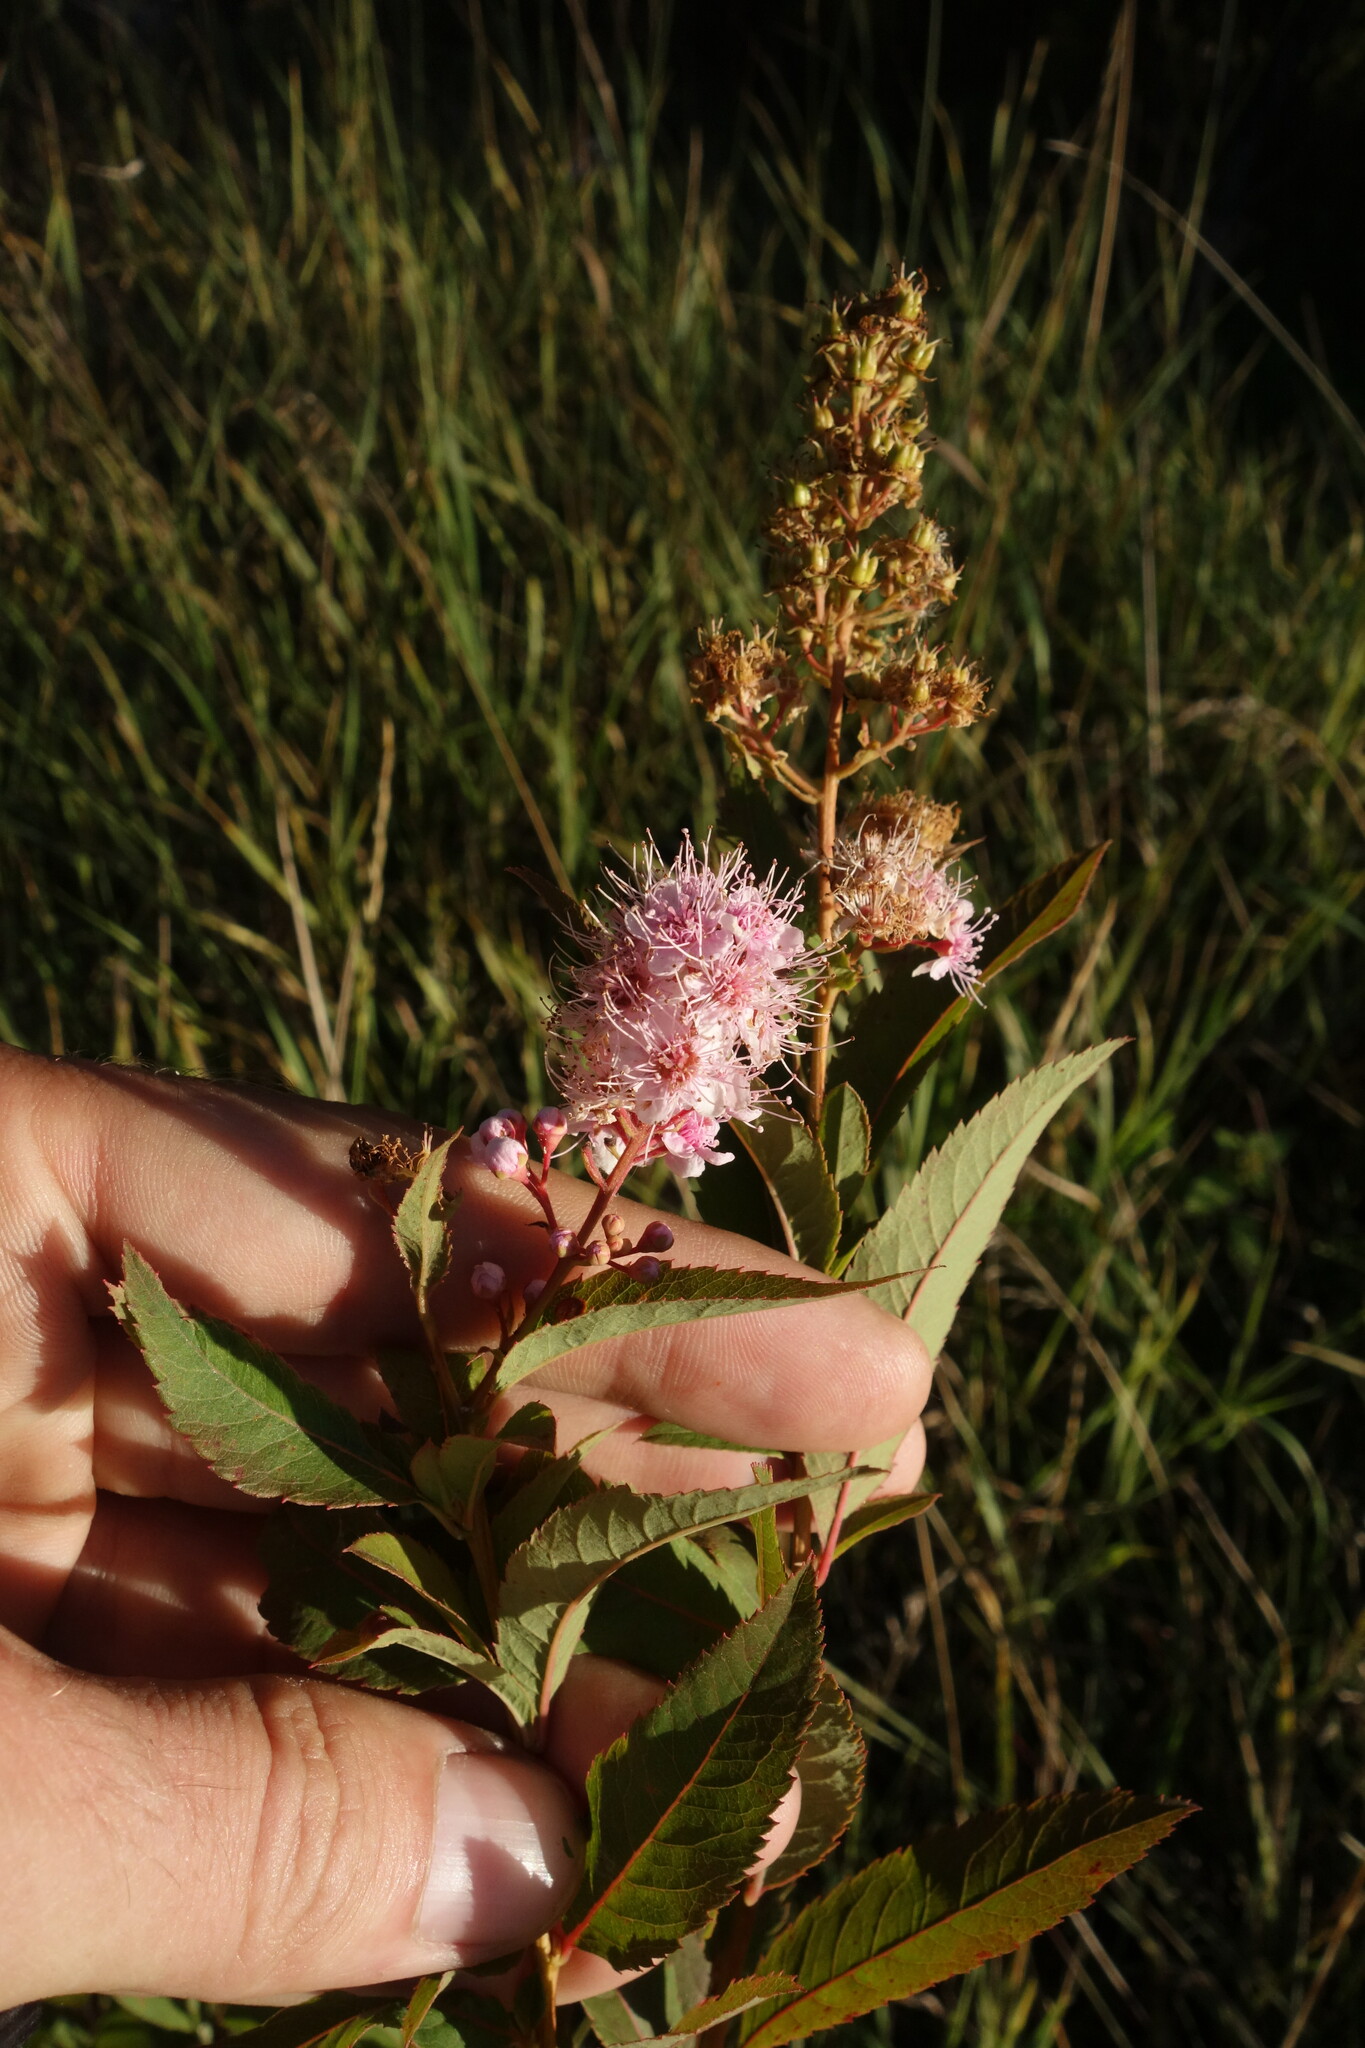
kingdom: Plantae
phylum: Tracheophyta
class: Magnoliopsida
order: Rosales
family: Rosaceae
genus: Spiraea
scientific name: Spiraea salicifolia
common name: Bridewort
